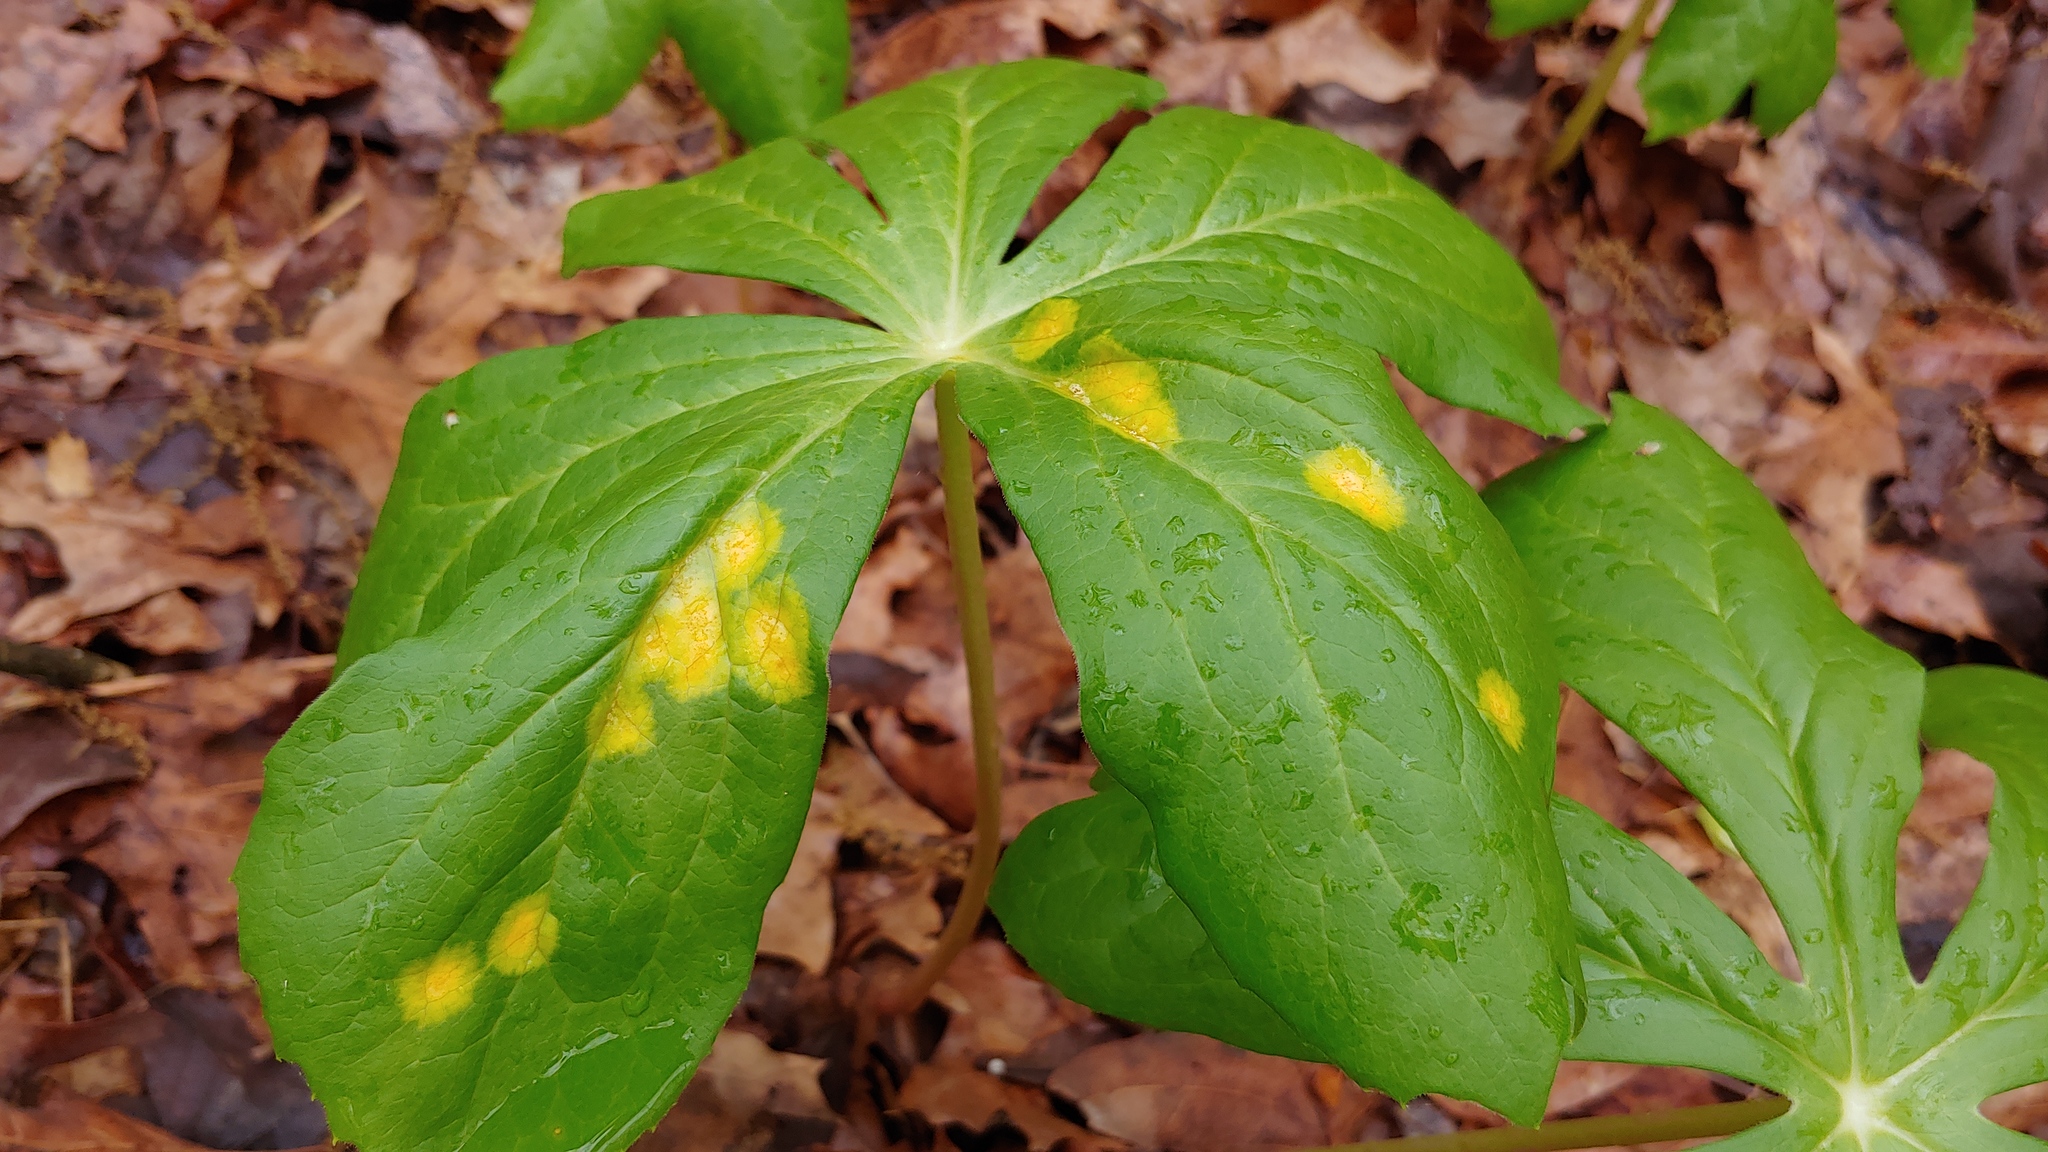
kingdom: Fungi
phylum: Basidiomycota
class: Pucciniomycetes
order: Pucciniales
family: Pucciniaceae
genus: Puccinia
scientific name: Puccinia podophylli
